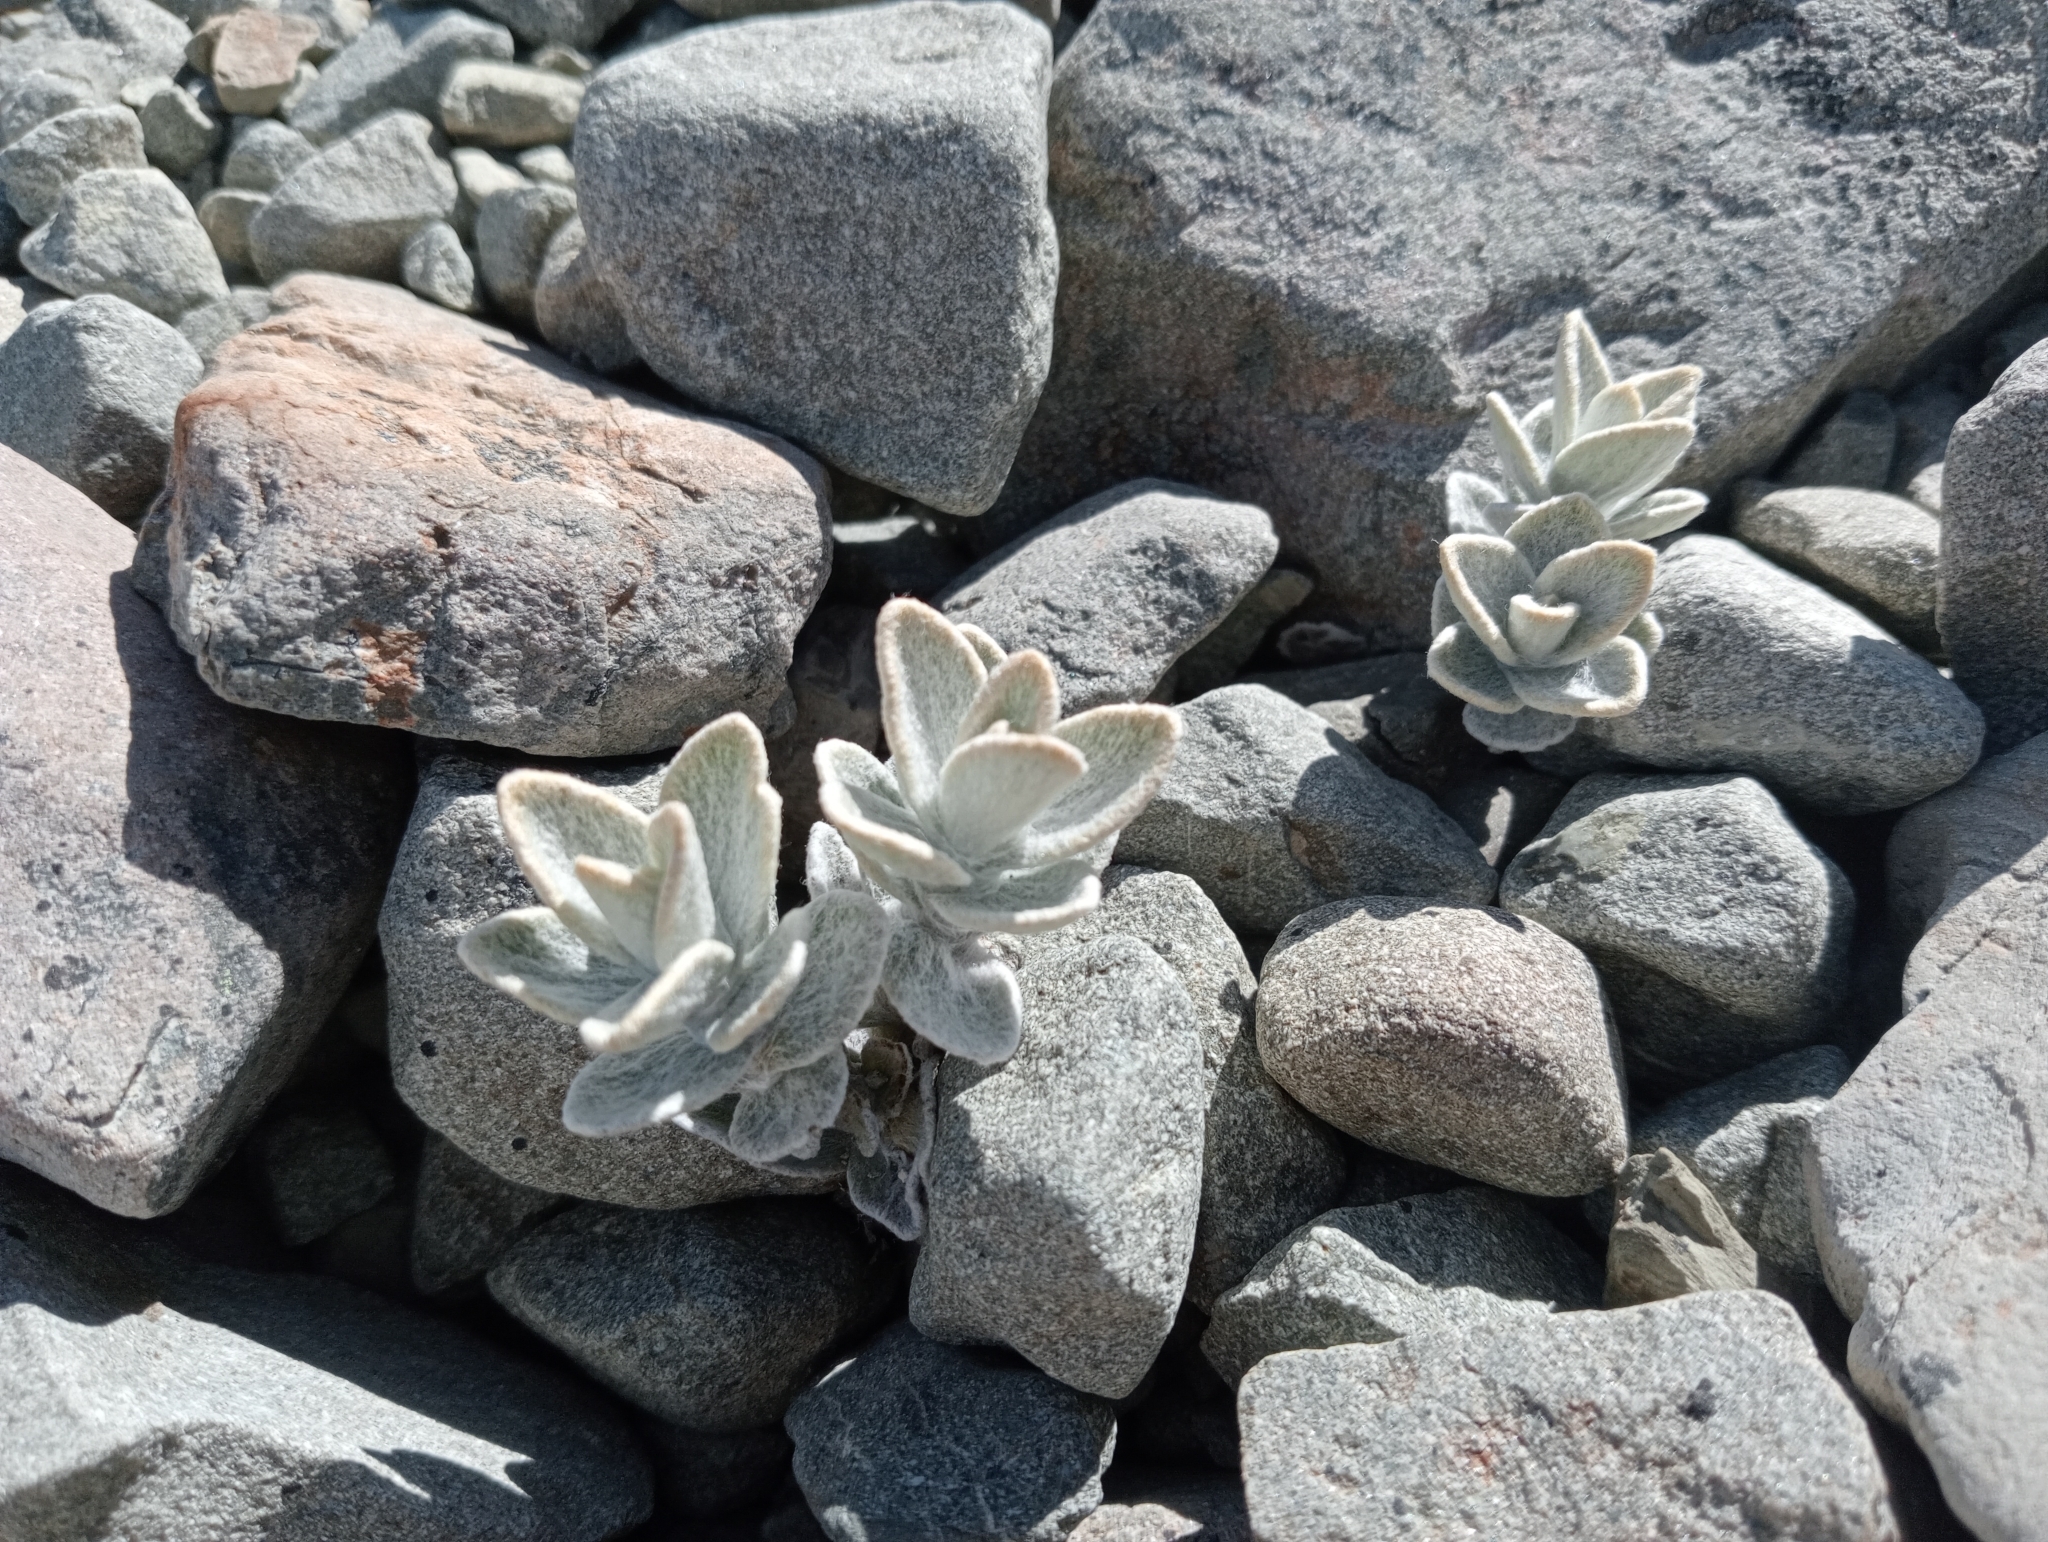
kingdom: Plantae
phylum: Tracheophyta
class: Magnoliopsida
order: Asterales
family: Asteraceae
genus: Haastia
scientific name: Haastia sinclairii
